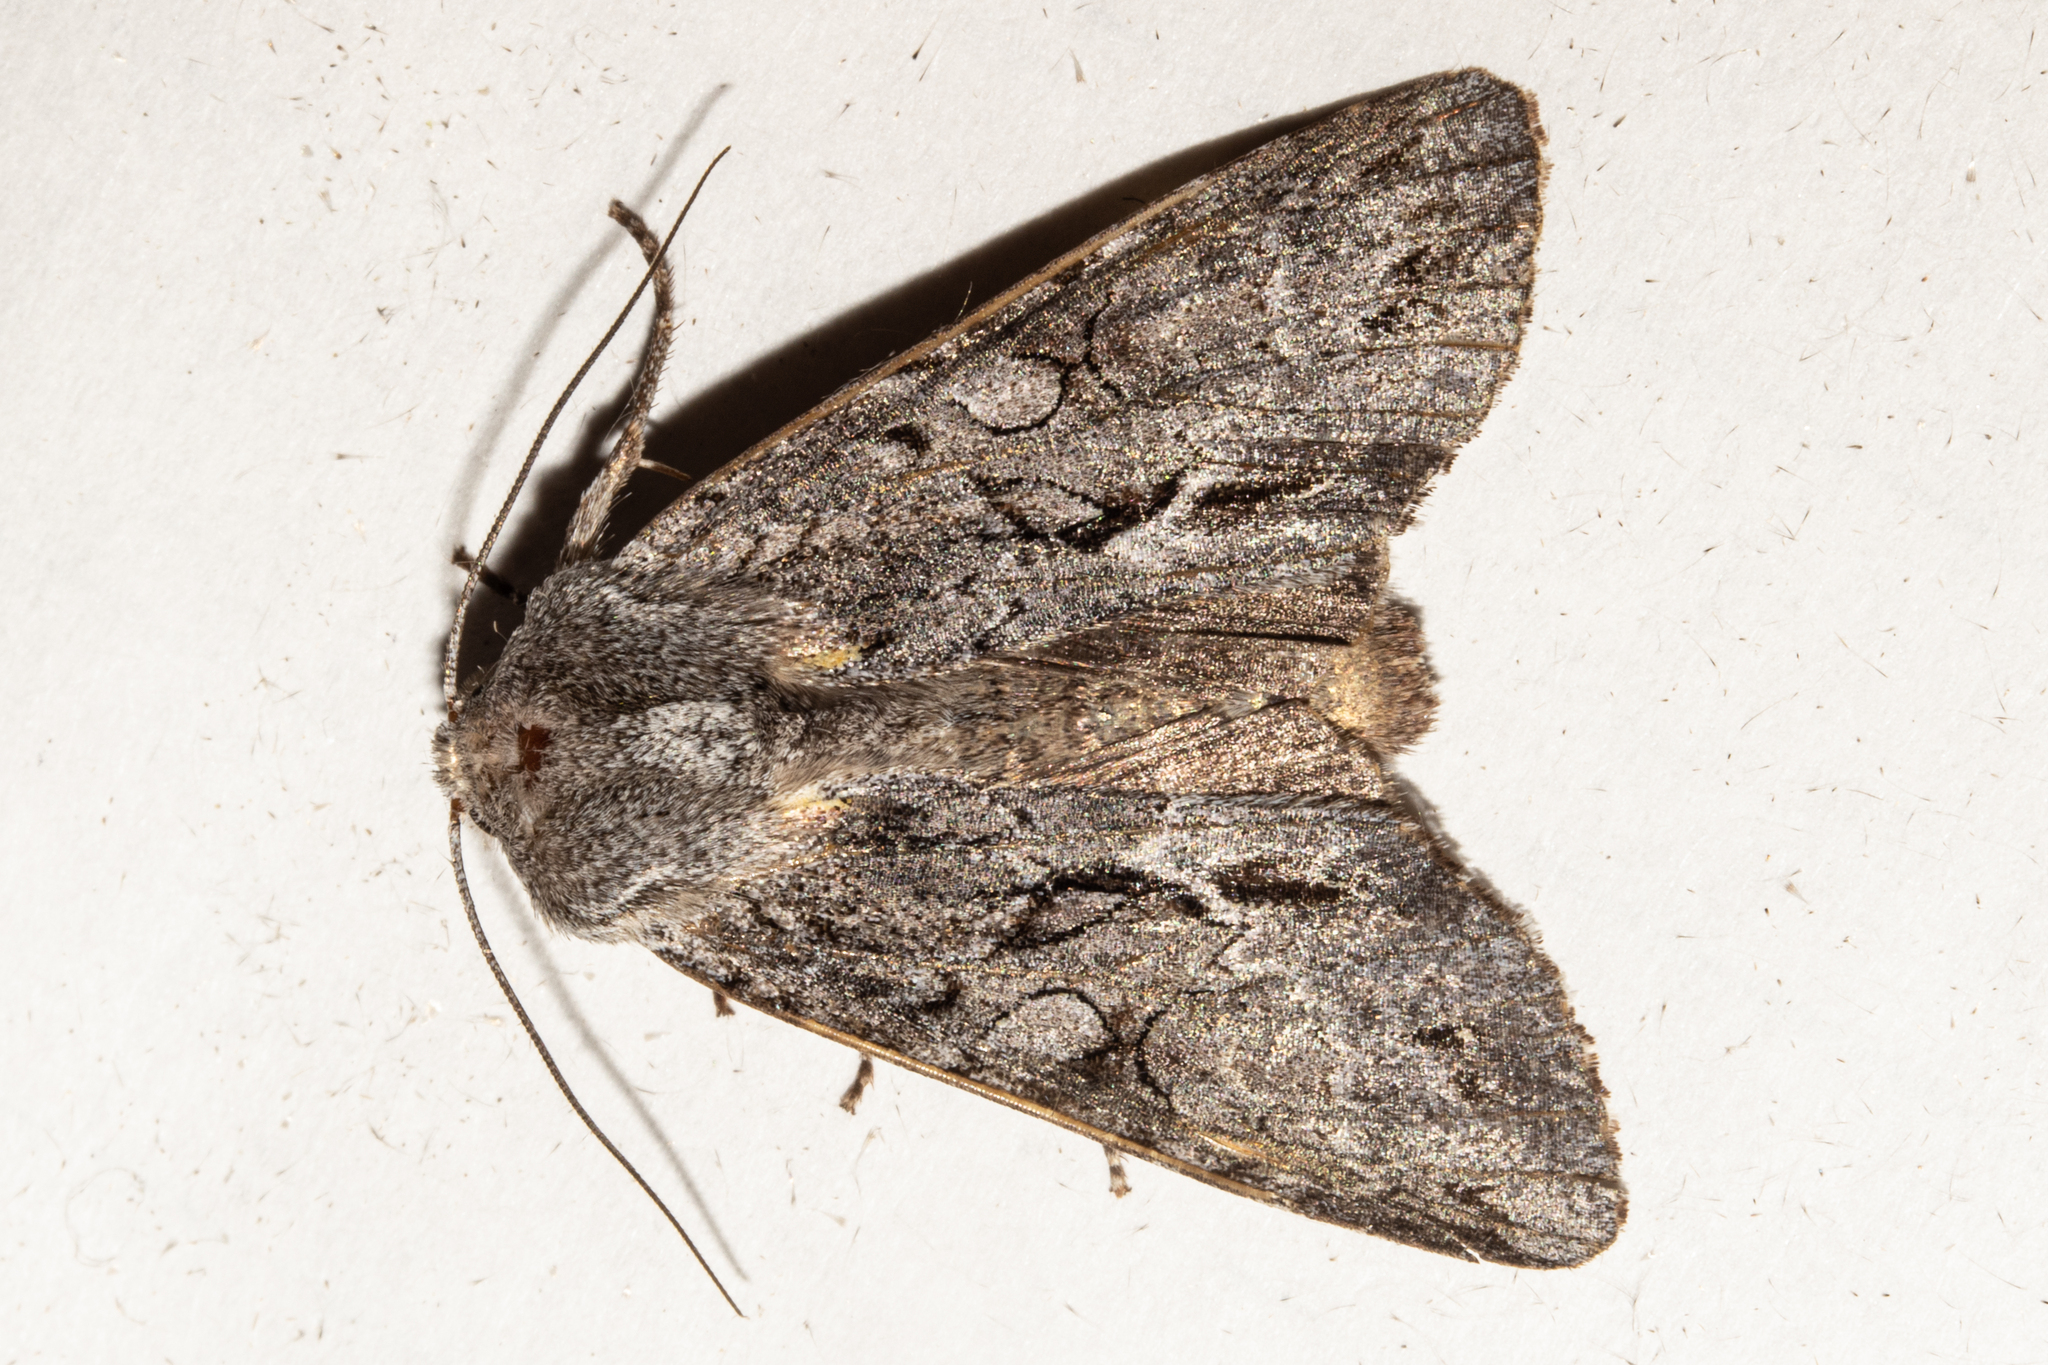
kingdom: Animalia
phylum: Arthropoda
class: Insecta
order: Lepidoptera
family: Noctuidae
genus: Ichneutica
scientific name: Ichneutica
